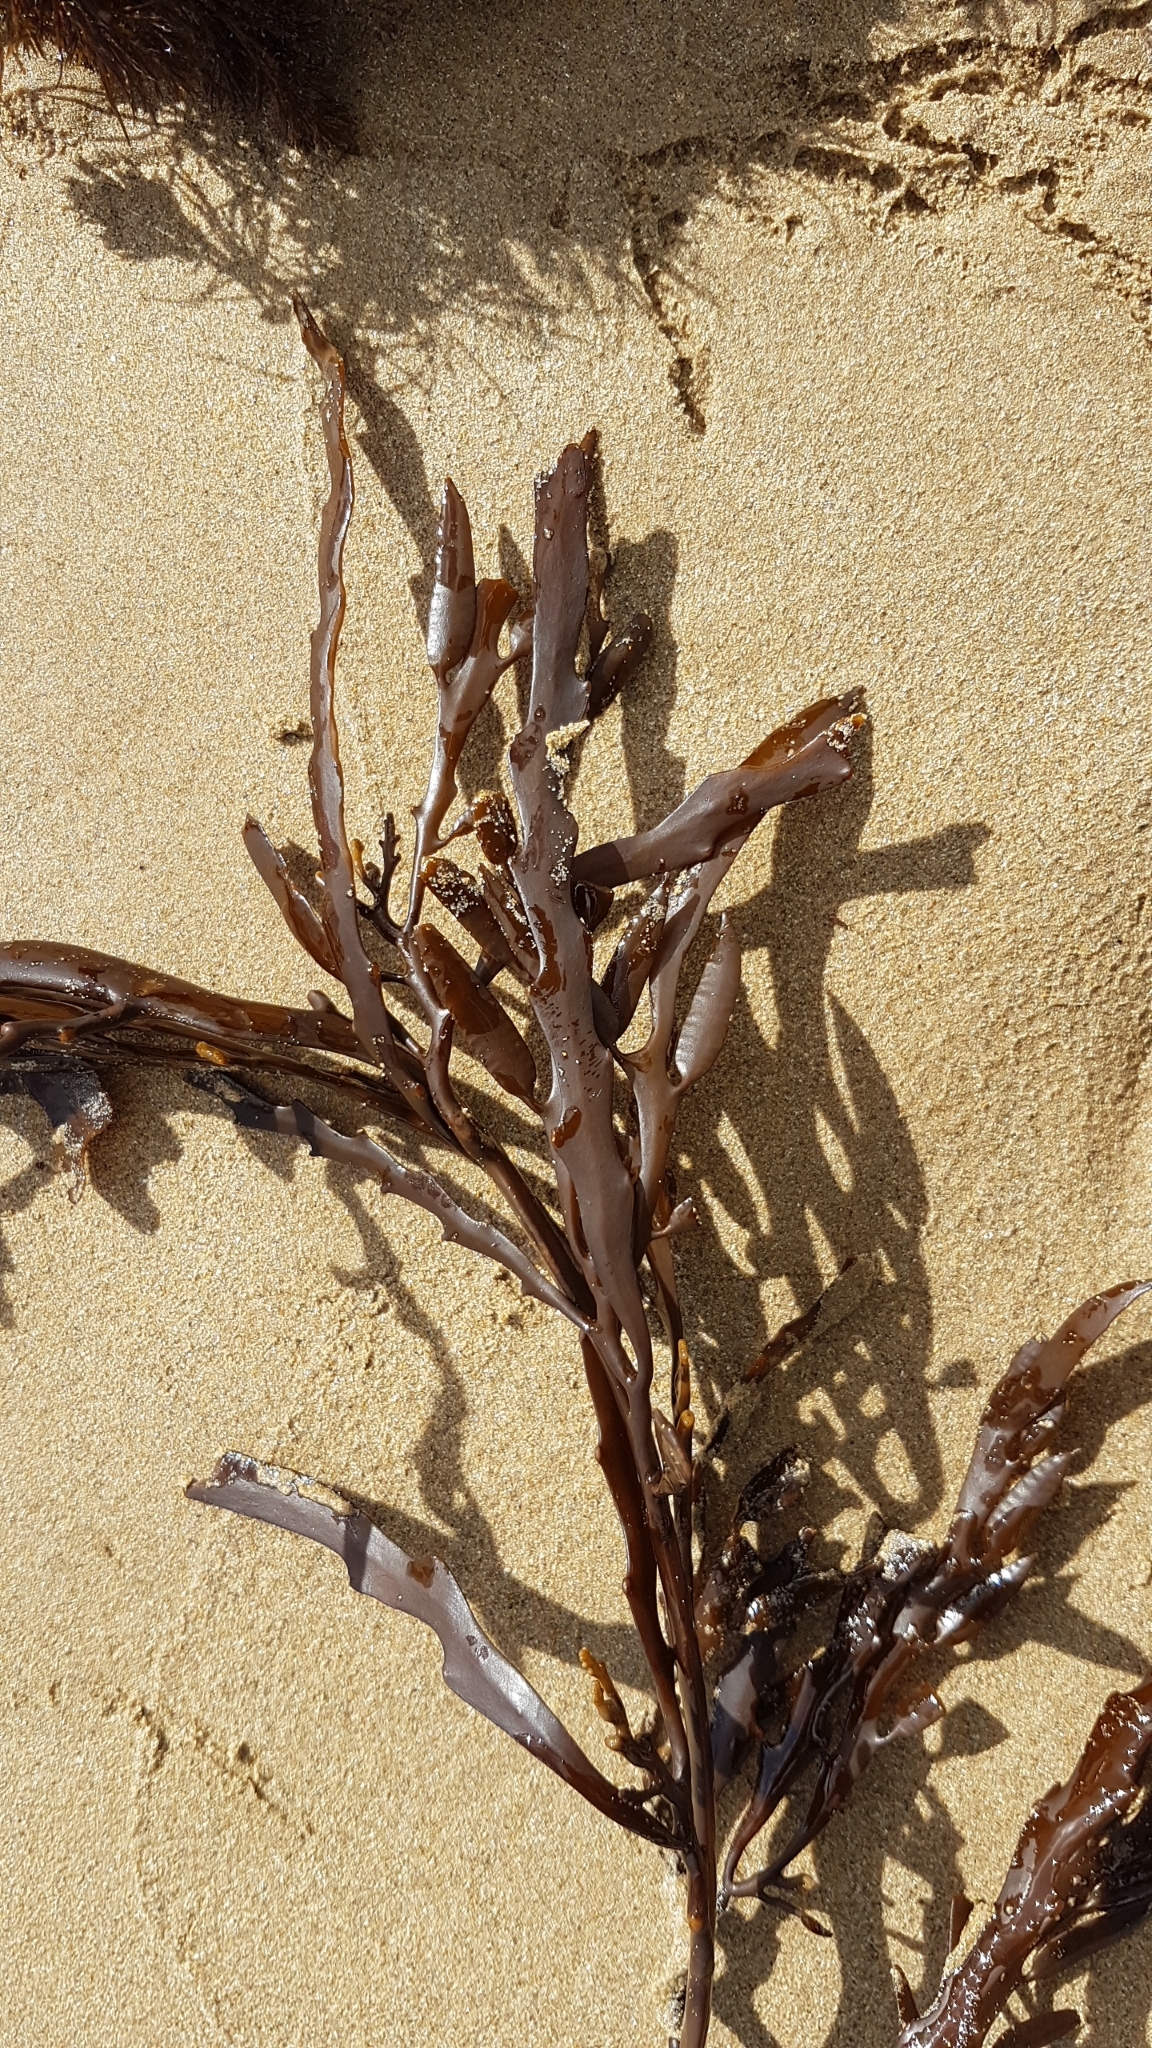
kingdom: Chromista
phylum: Ochrophyta
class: Phaeophyceae
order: Fucales
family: Sargassaceae
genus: Cystophora
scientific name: Cystophora platylobium
